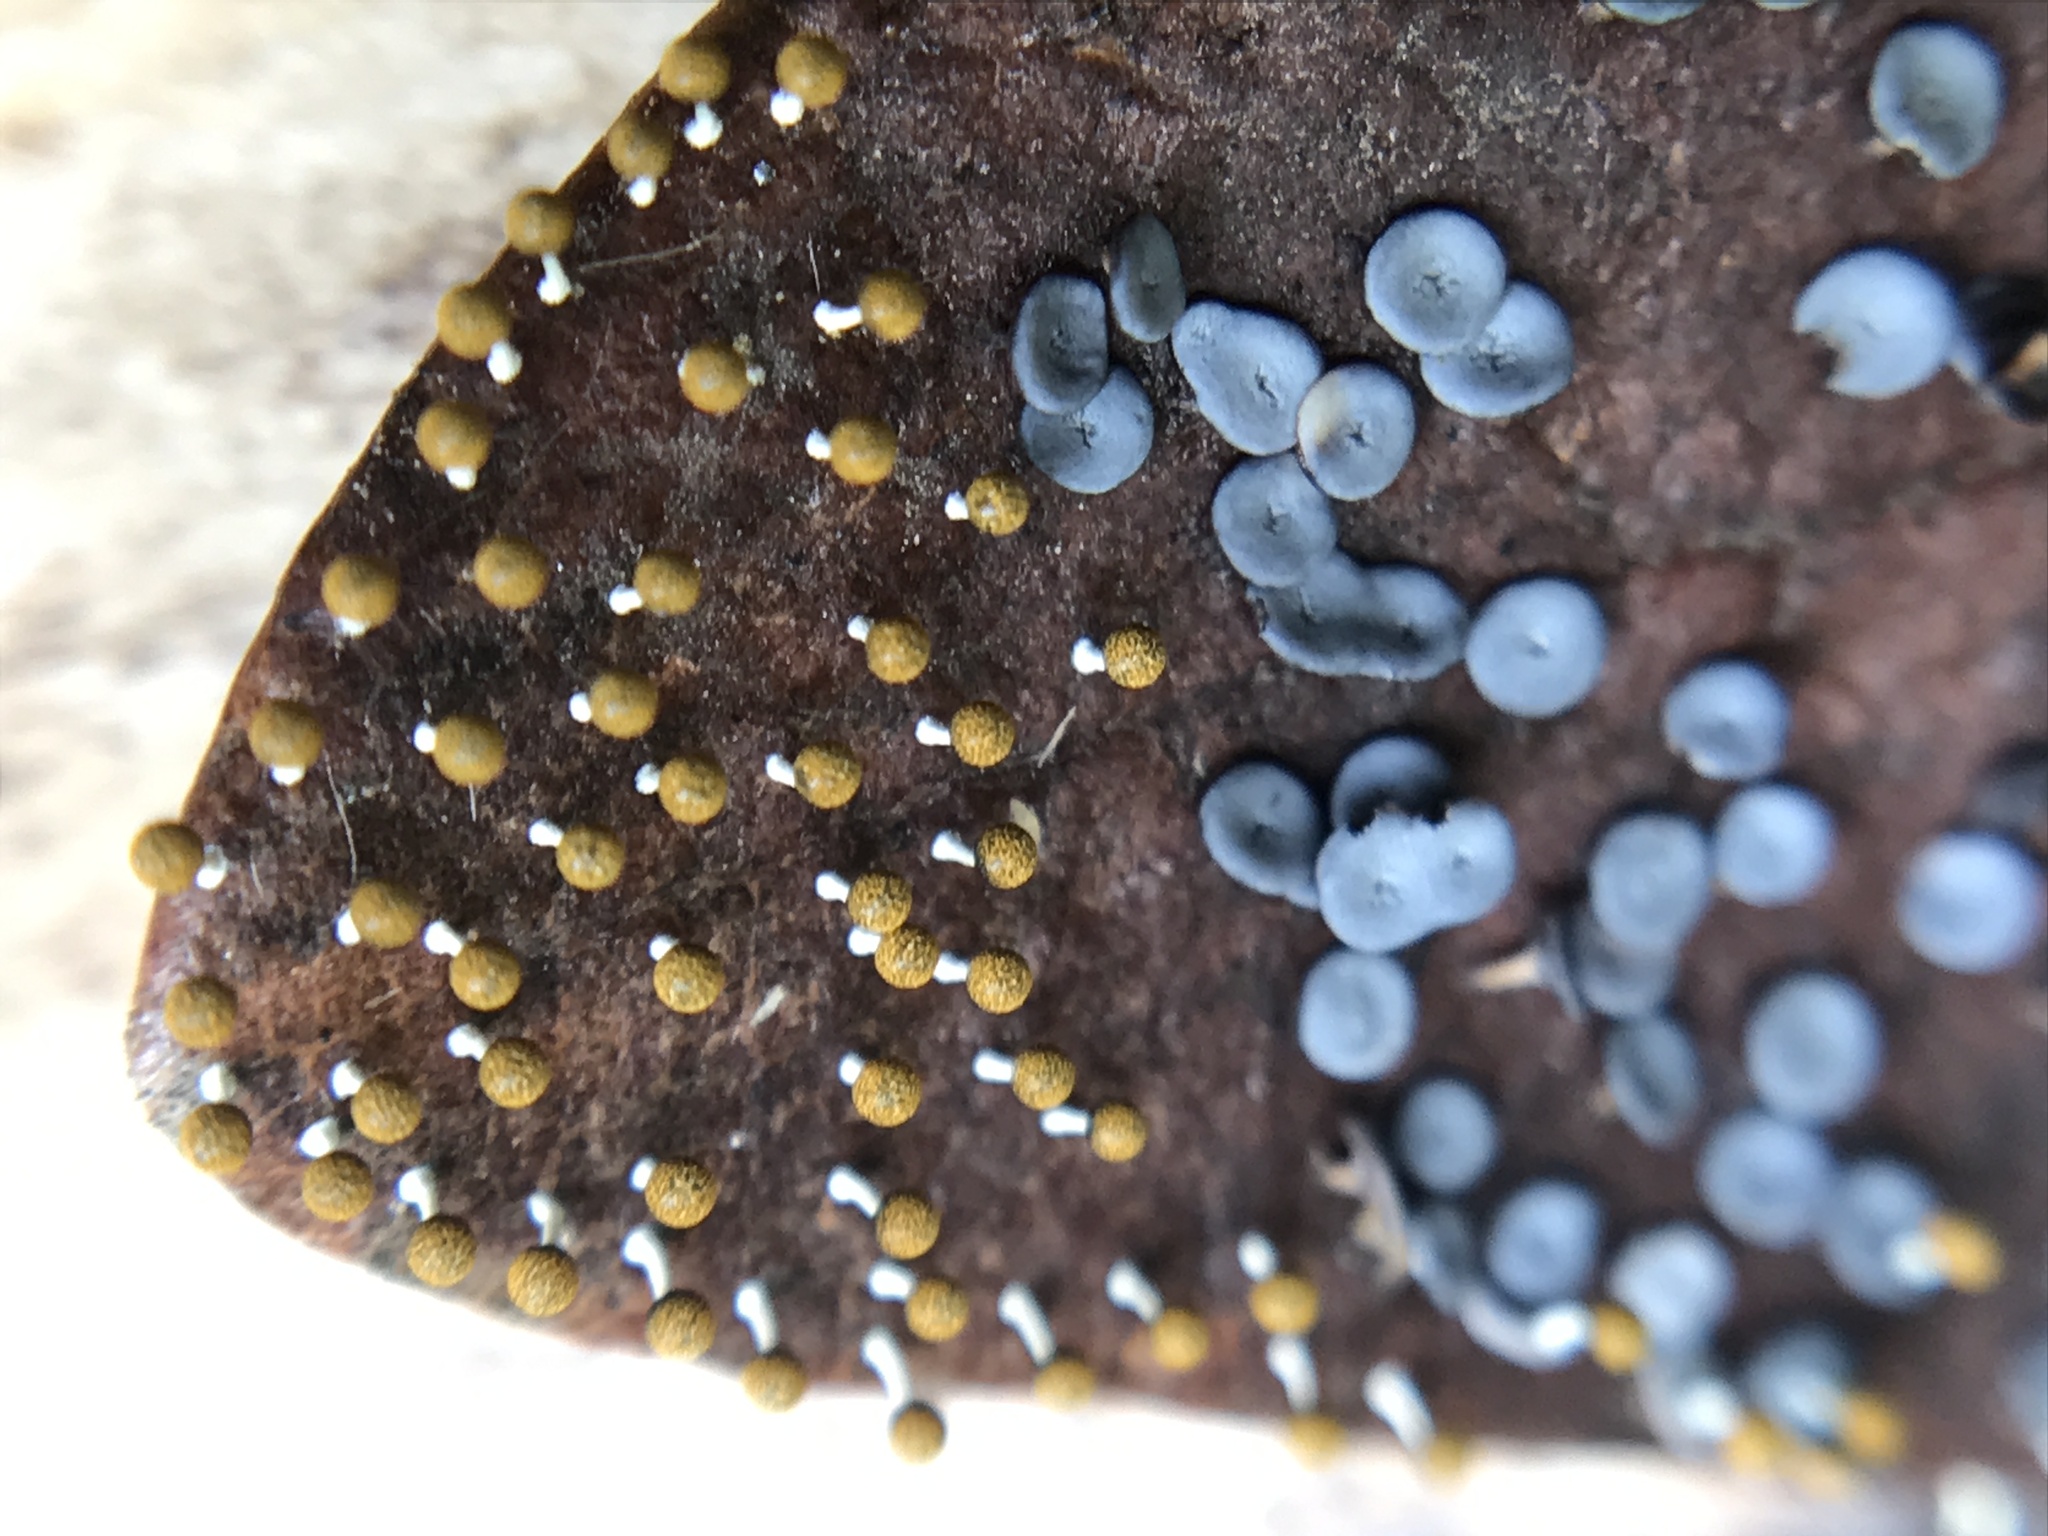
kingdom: Protozoa
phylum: Mycetozoa
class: Myxomycetes
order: Physarales
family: Didymiaceae
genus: Diderma
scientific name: Diderma hemisphaericum
